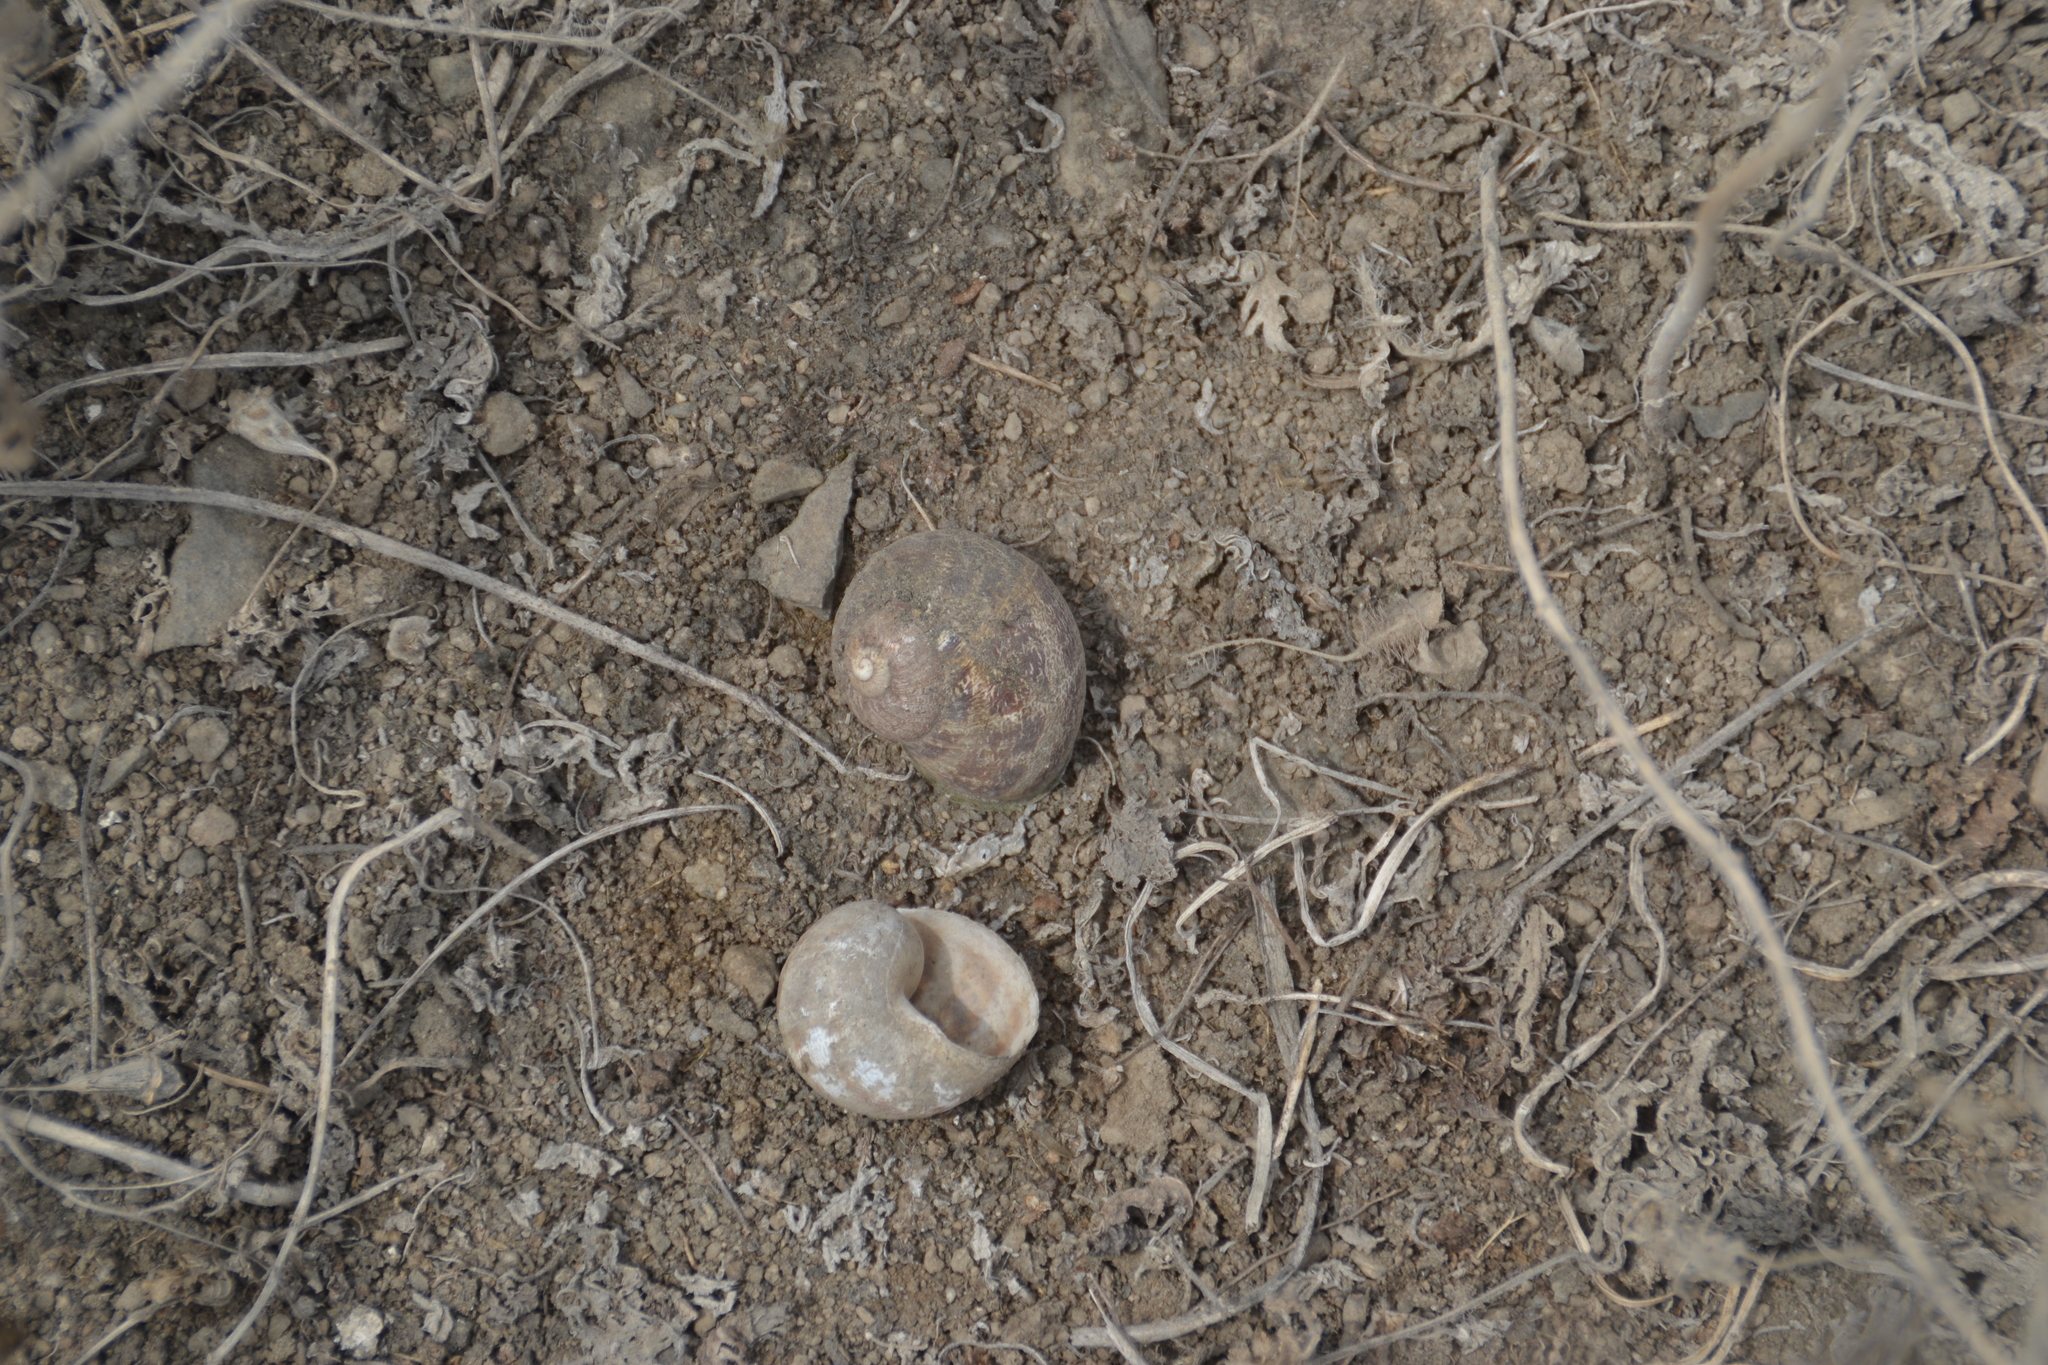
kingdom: Animalia
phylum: Mollusca
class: Gastropoda
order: Stylommatophora
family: Helicidae
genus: Cornu
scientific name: Cornu aspersum
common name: Brown garden snail
